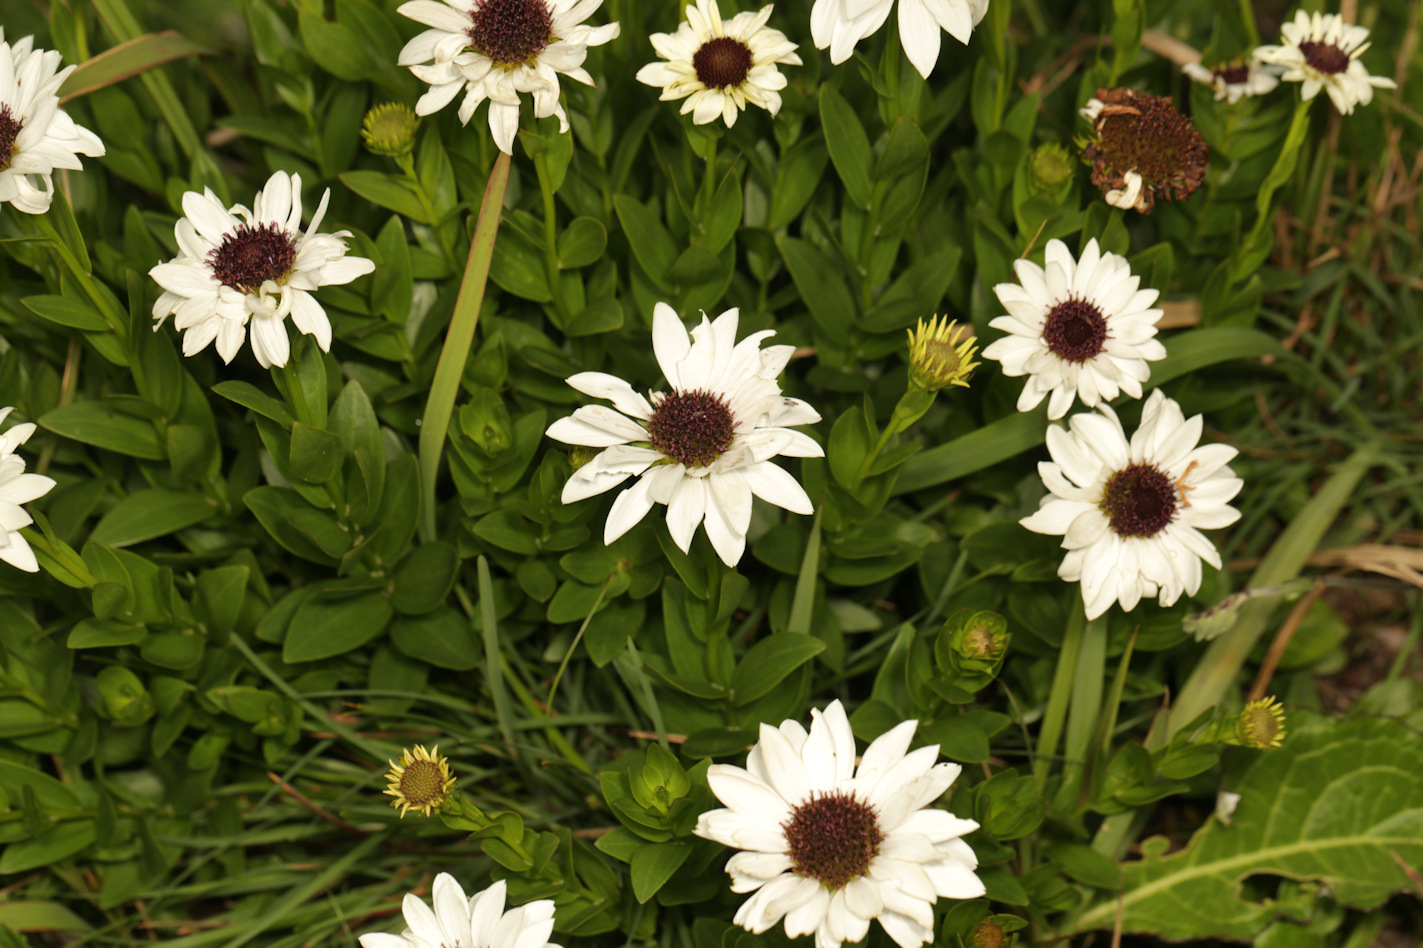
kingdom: Plantae
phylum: Tracheophyta
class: Magnoliopsida
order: Asterales
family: Asteraceae
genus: Callilepis
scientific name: Callilepis laureola
